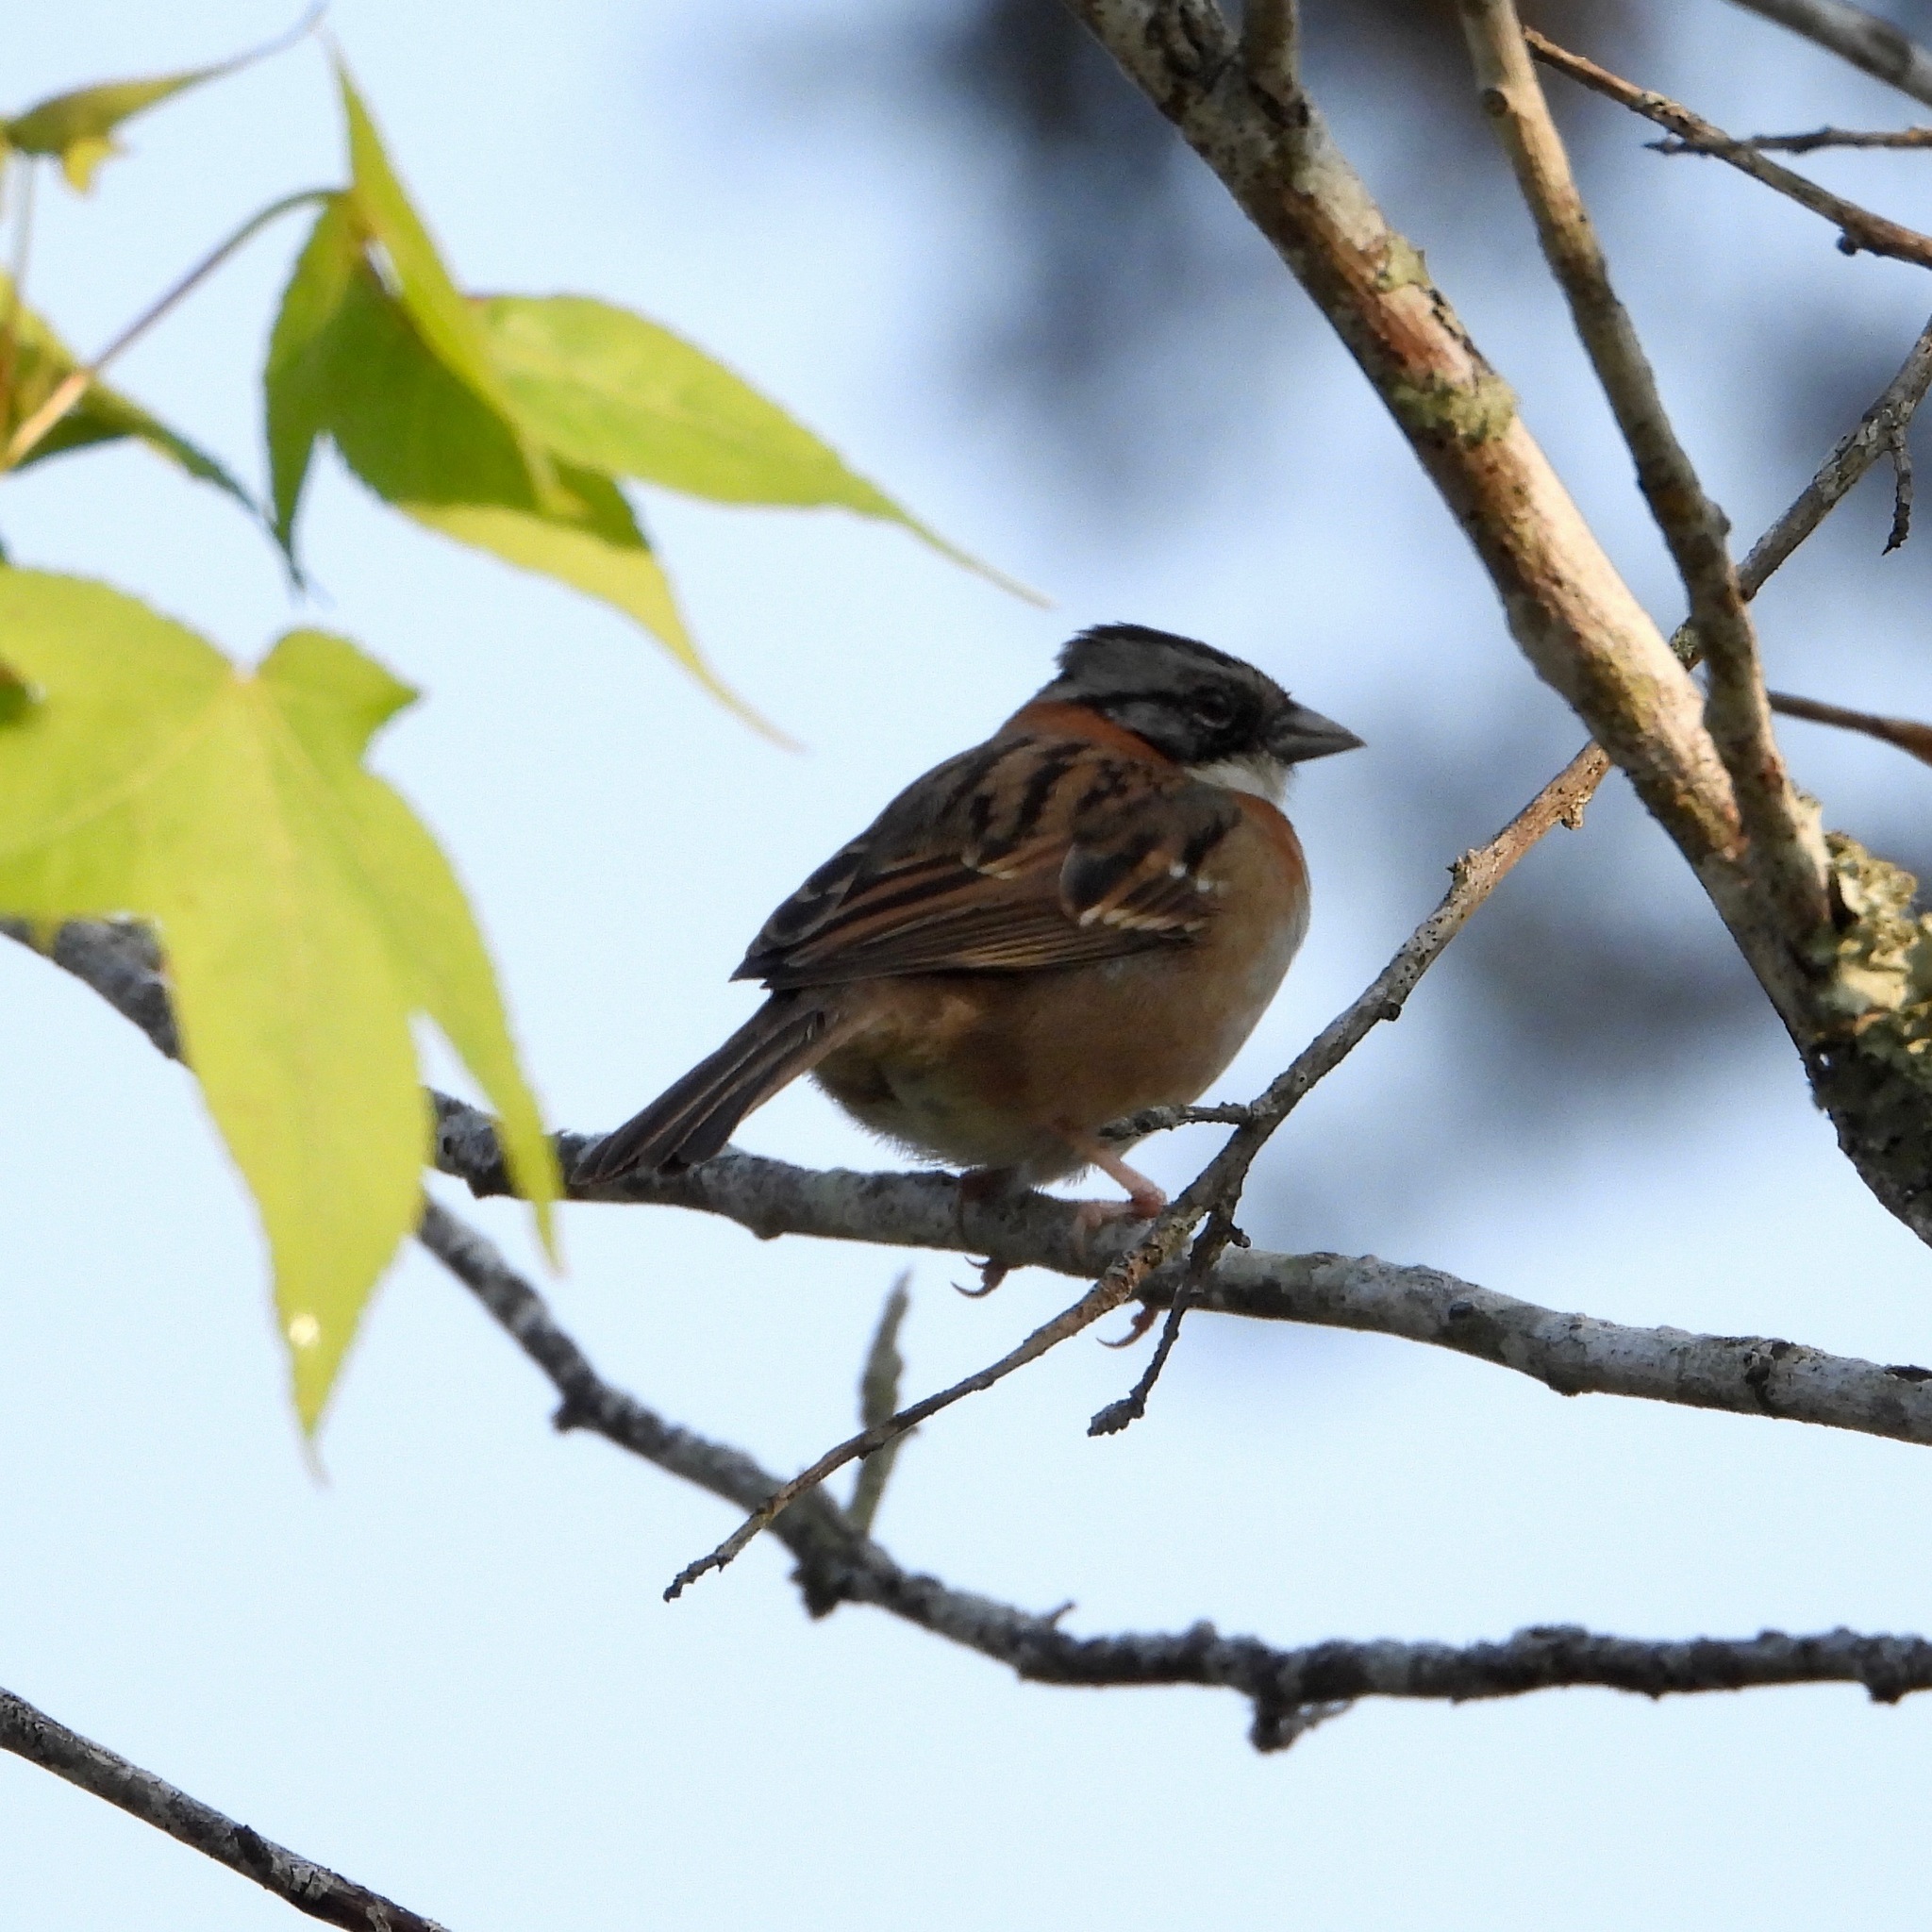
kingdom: Animalia
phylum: Chordata
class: Aves
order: Passeriformes
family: Passerellidae
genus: Zonotrichia
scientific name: Zonotrichia capensis
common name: Rufous-collared sparrow
